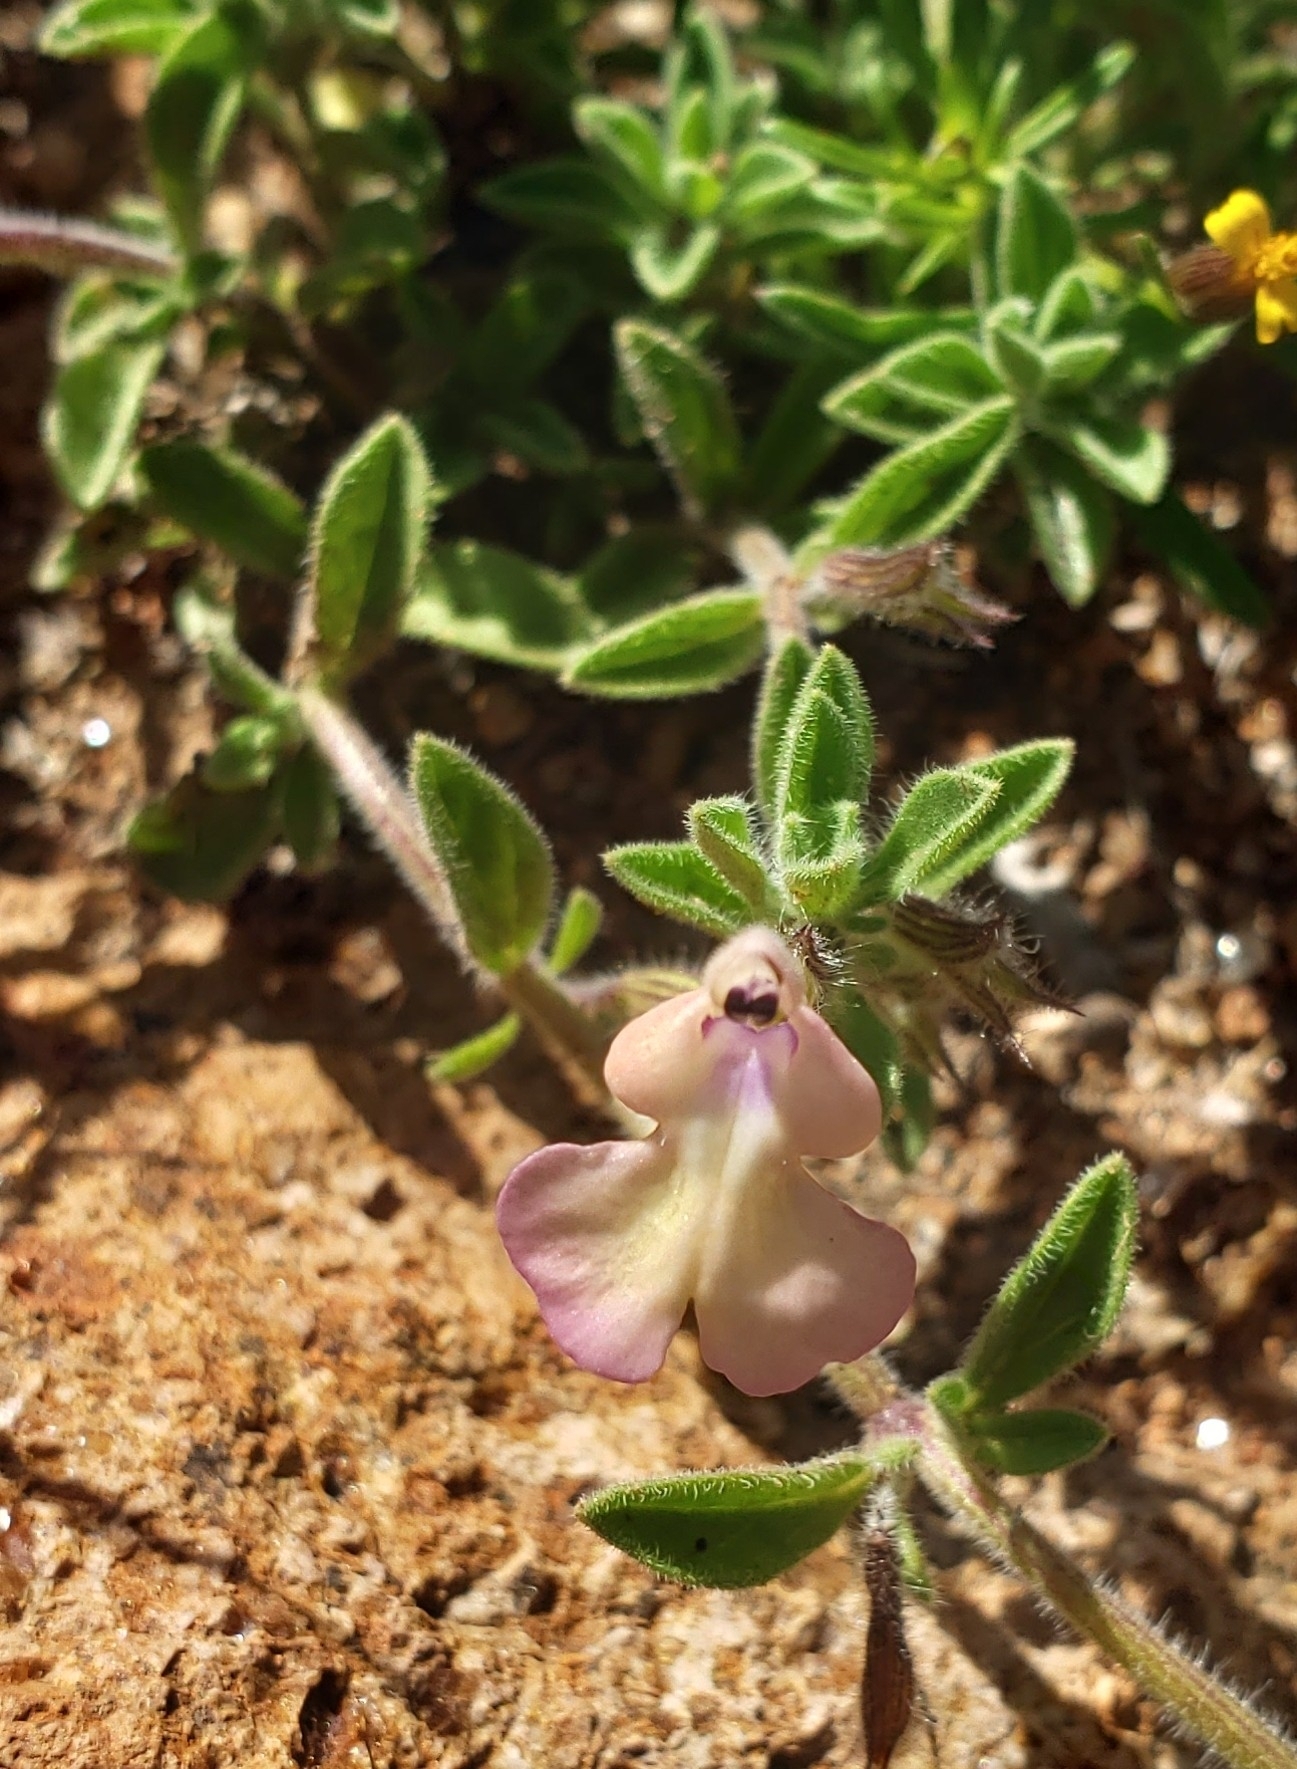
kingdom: Plantae
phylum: Tracheophyta
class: Magnoliopsida
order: Lamiales
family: Lamiaceae
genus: Salvia
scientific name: Salvia axillaris
